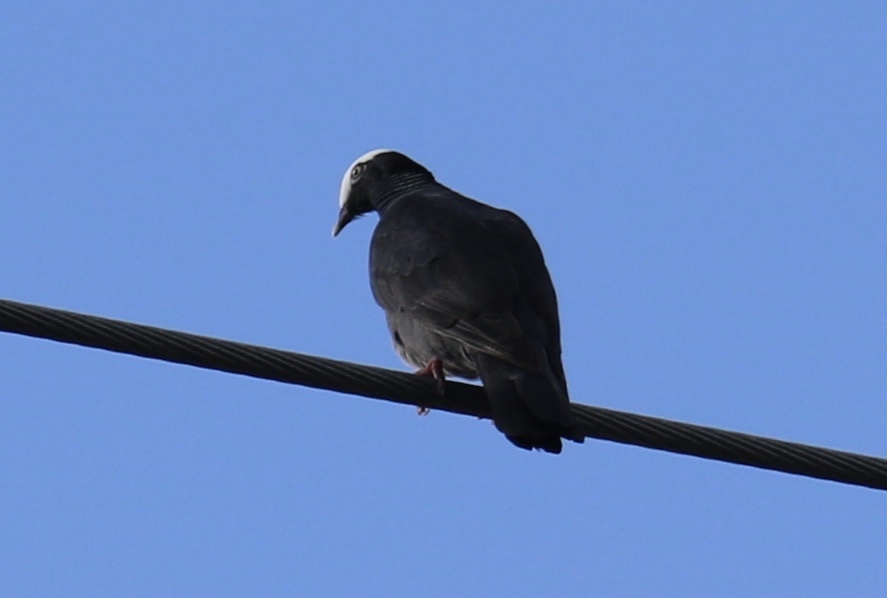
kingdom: Animalia
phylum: Chordata
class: Aves
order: Columbiformes
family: Columbidae
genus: Patagioenas
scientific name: Patagioenas leucocephala
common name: White-crowned pigeon
